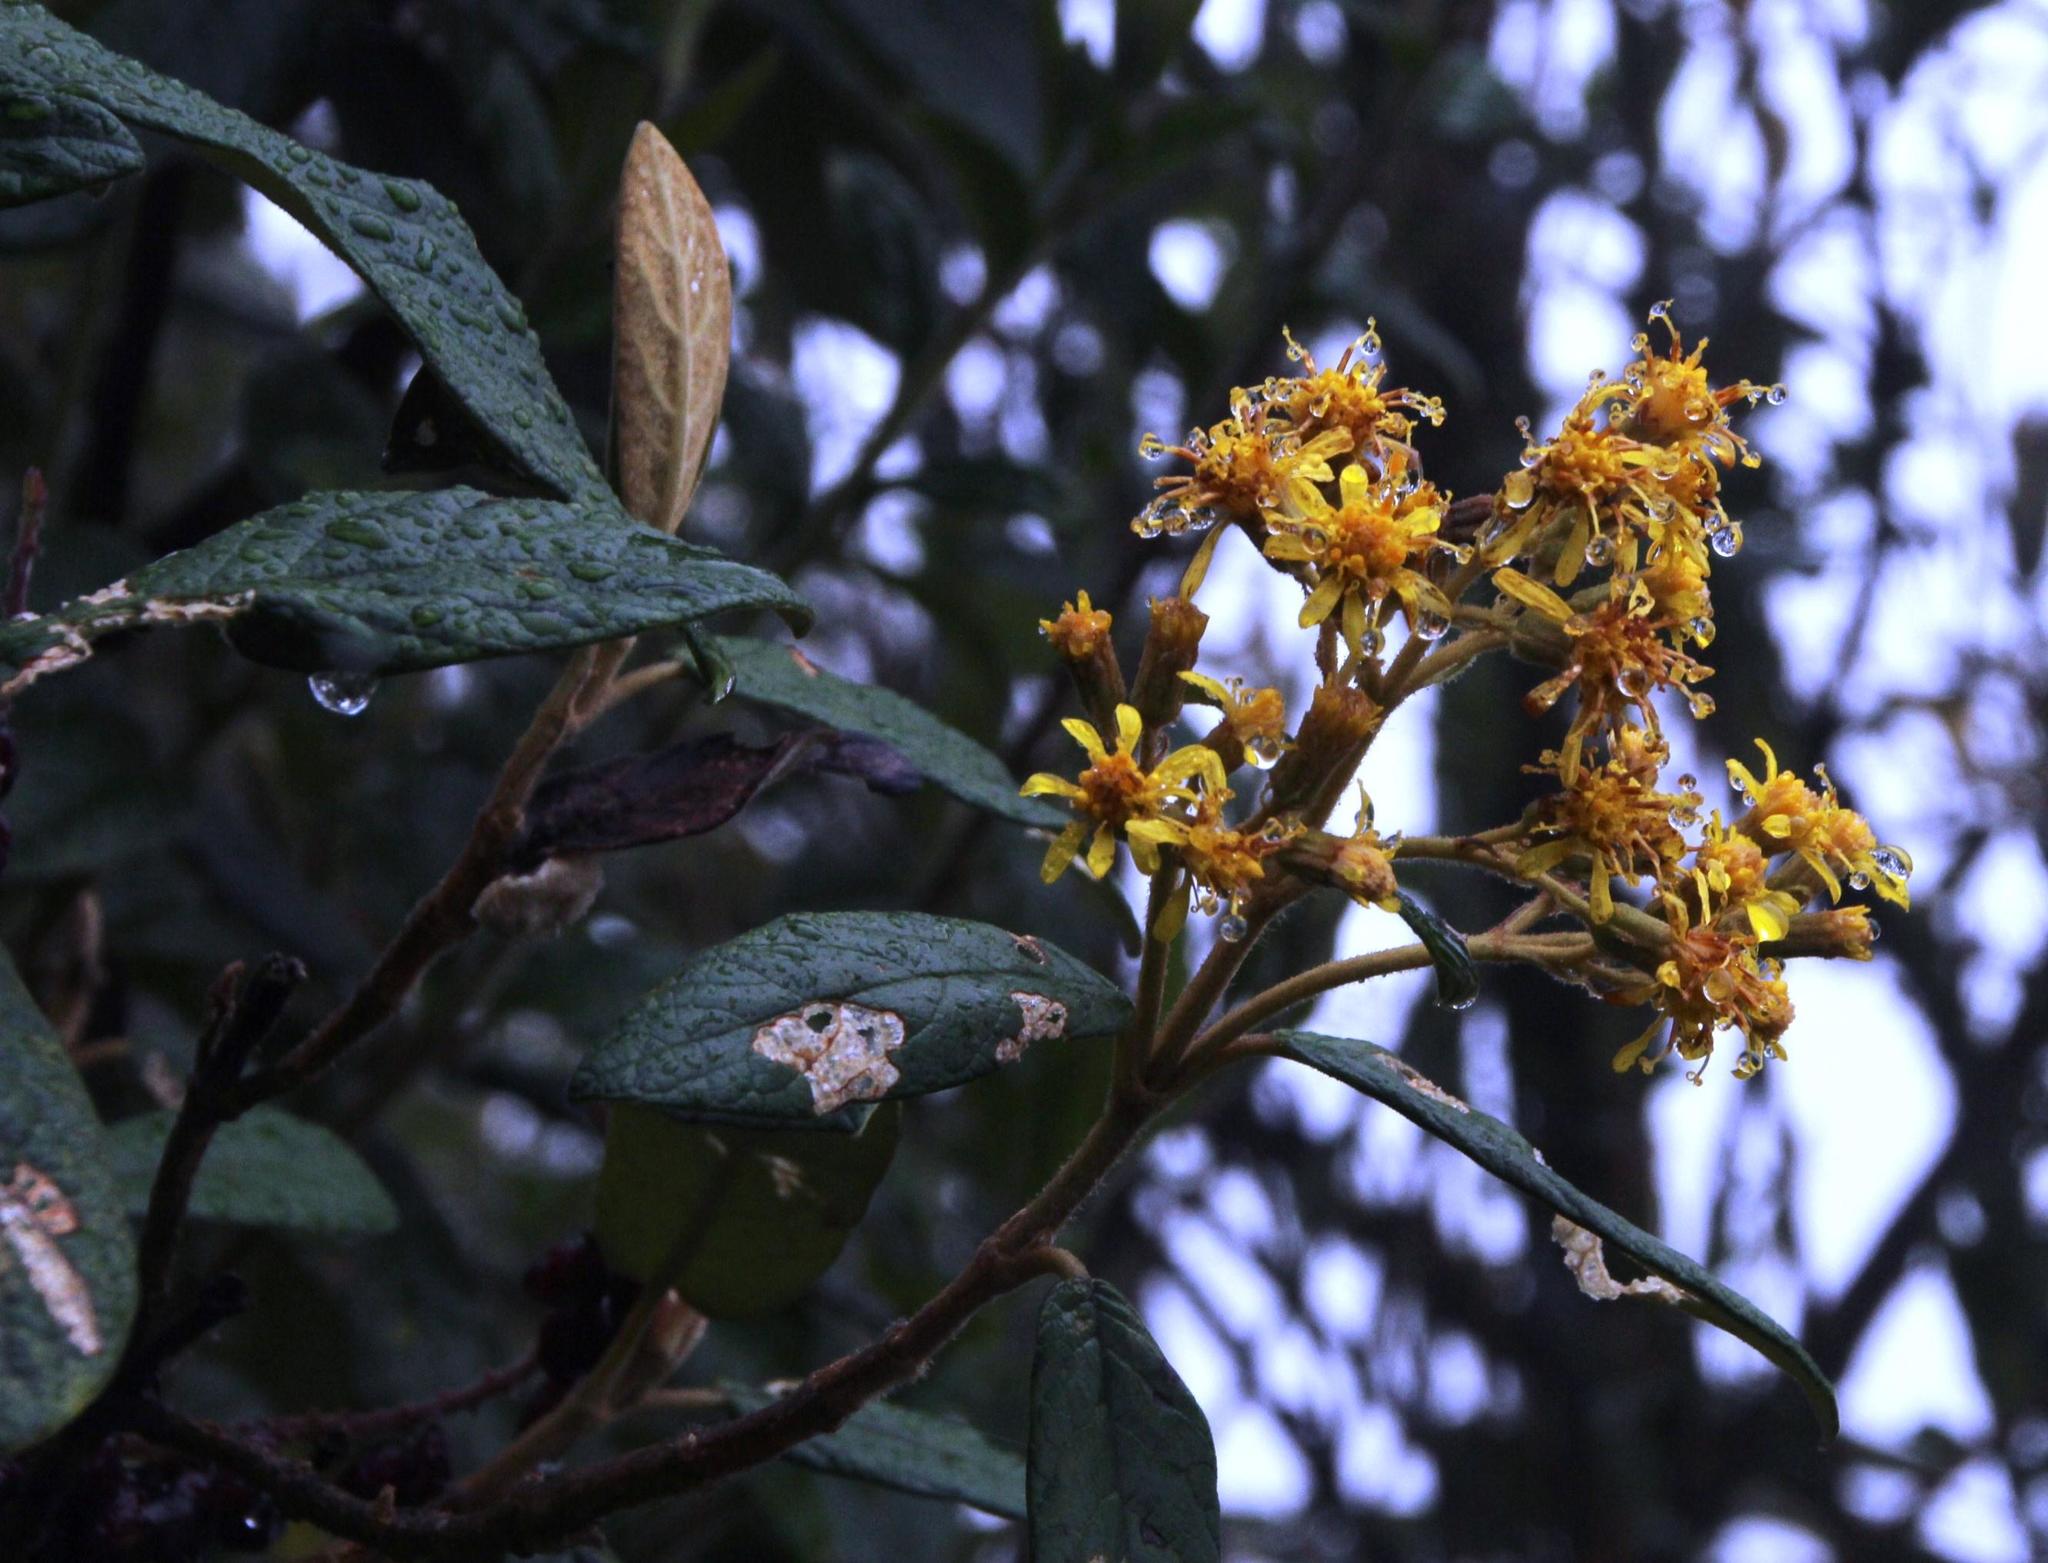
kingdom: Plantae
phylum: Tracheophyta
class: Magnoliopsida
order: Asterales
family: Asteraceae
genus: Gynoxys
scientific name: Gynoxys
